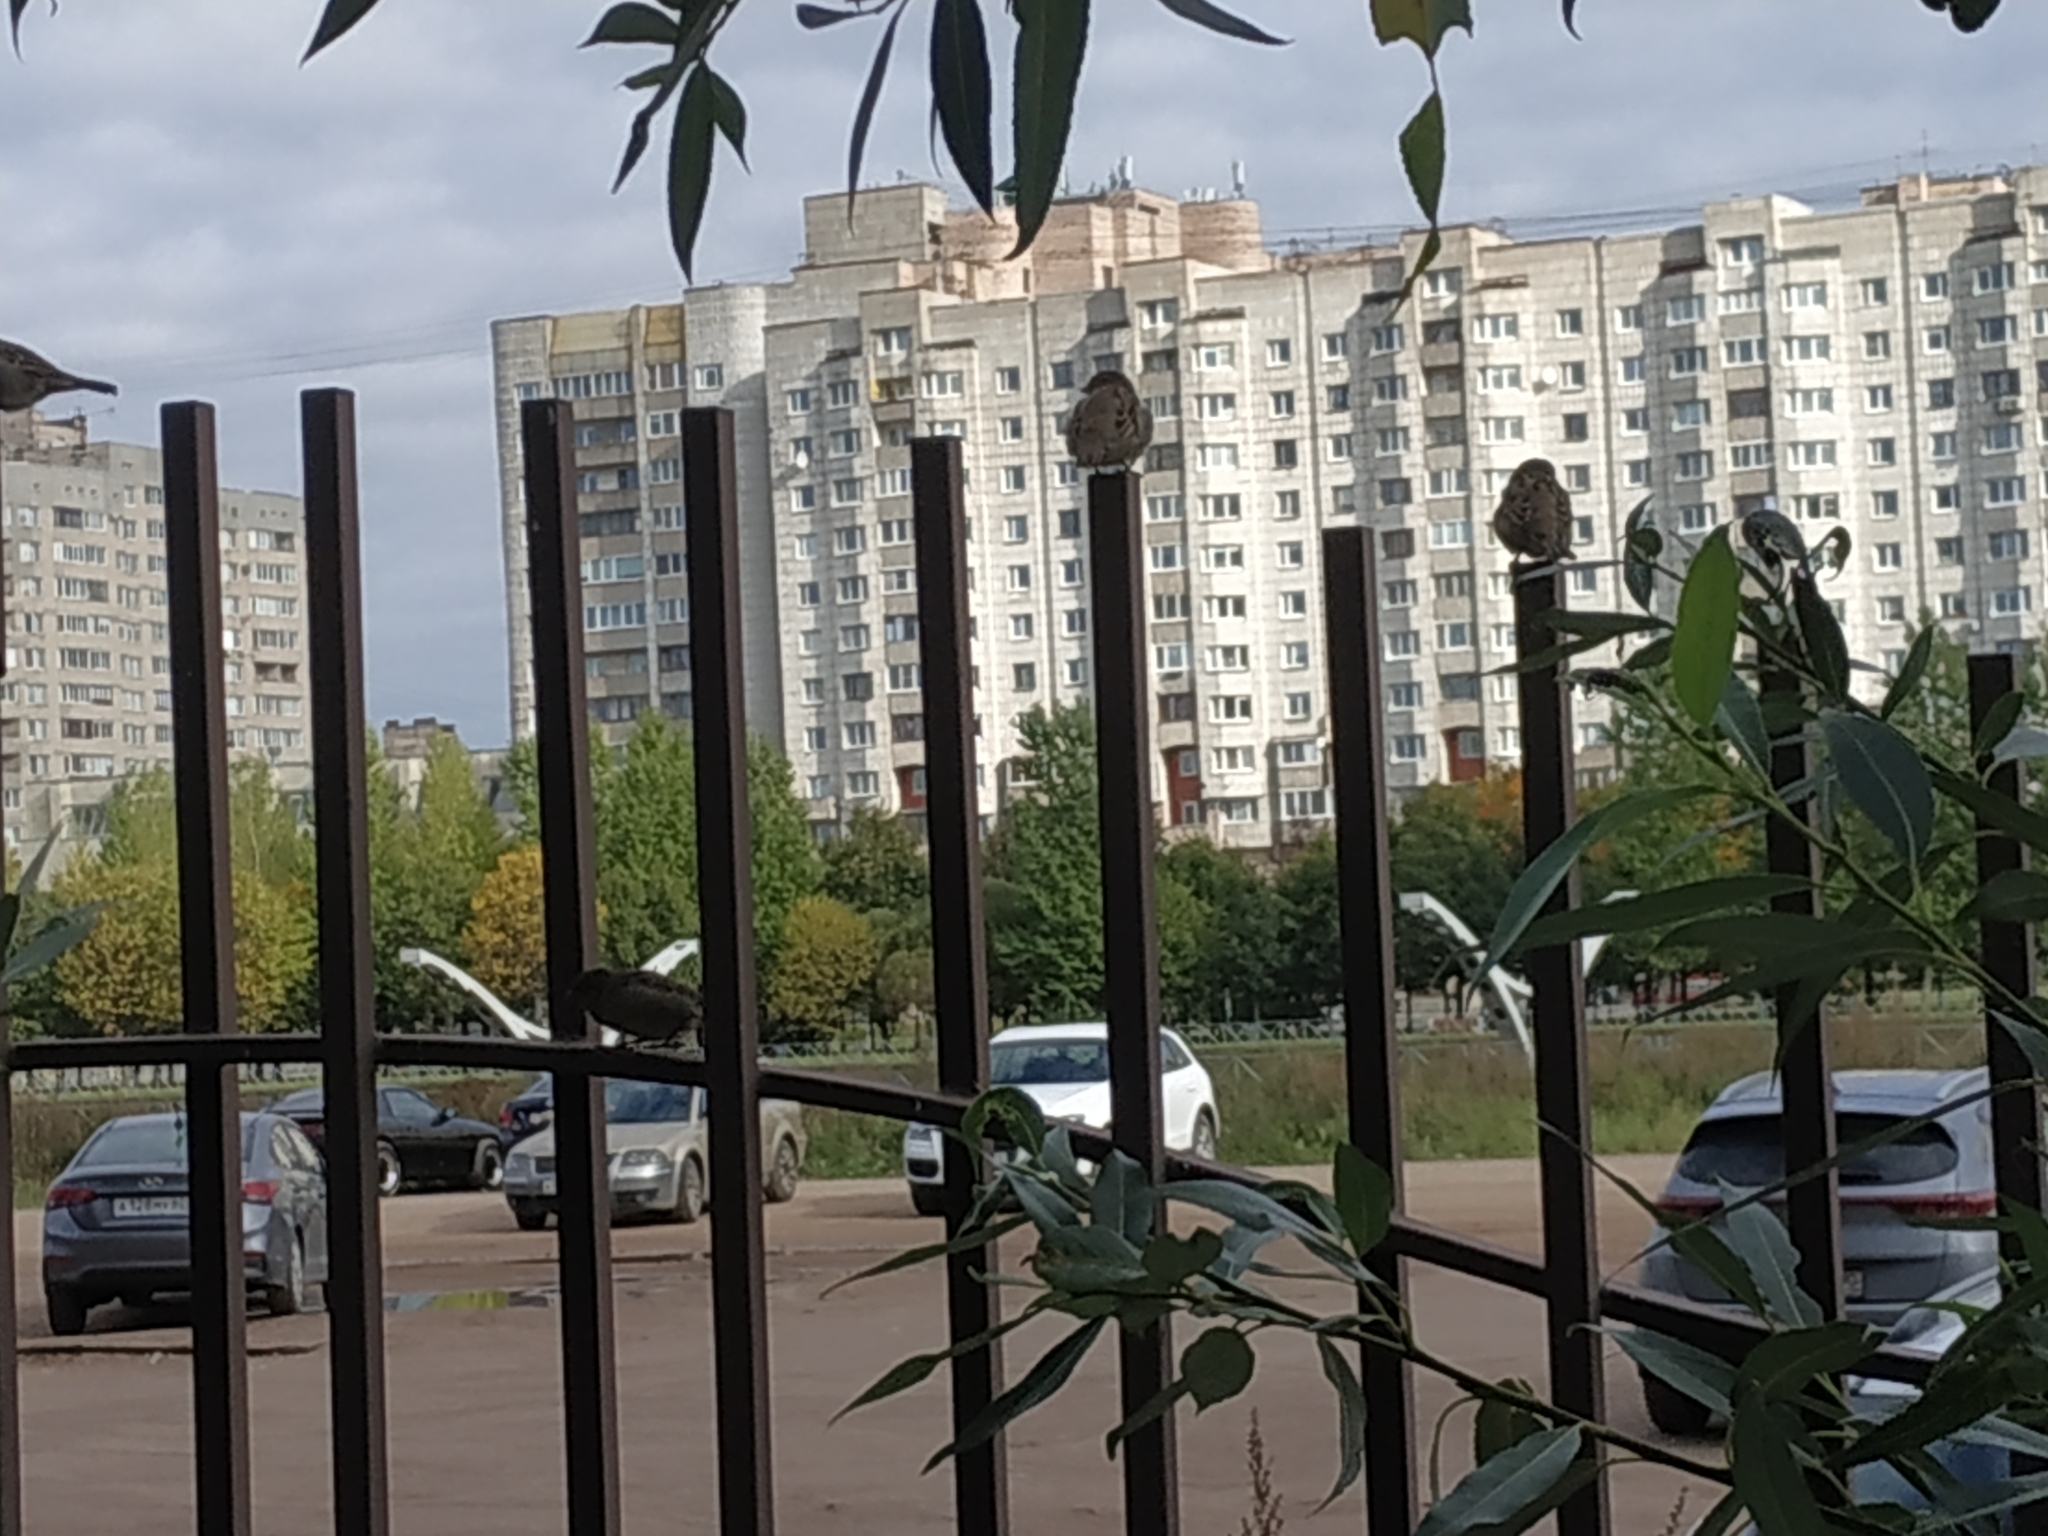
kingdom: Animalia
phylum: Chordata
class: Aves
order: Passeriformes
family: Passeridae
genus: Passer
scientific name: Passer domesticus
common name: House sparrow
